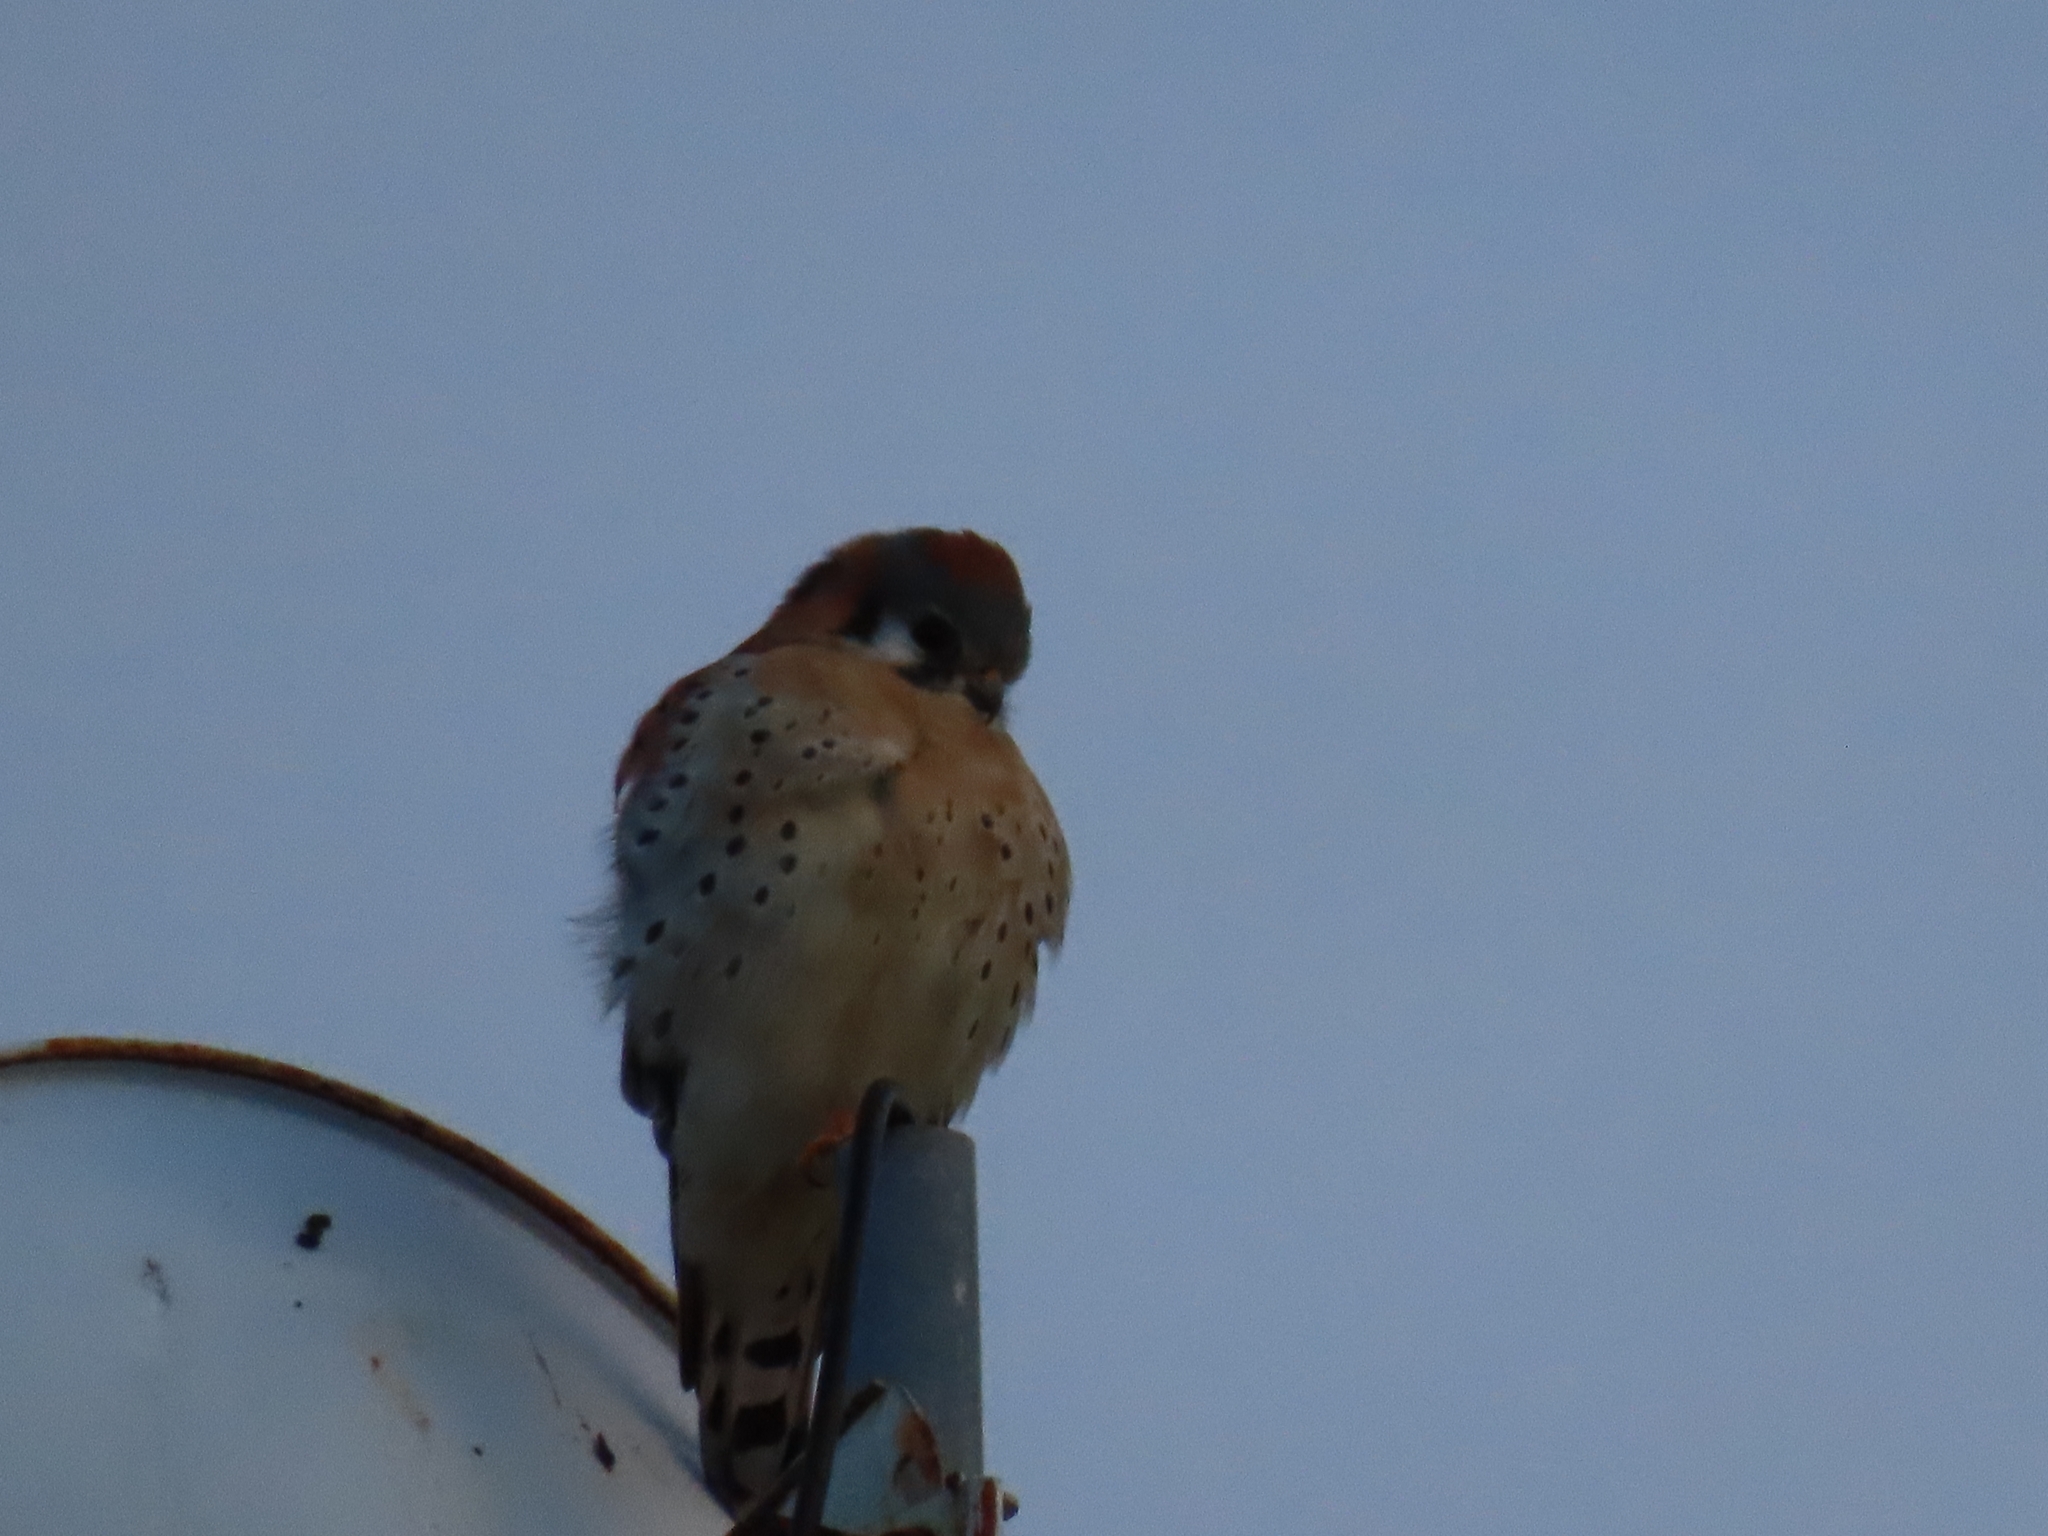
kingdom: Animalia
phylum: Chordata
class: Aves
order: Falconiformes
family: Falconidae
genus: Falco
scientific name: Falco sparverius
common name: American kestrel
